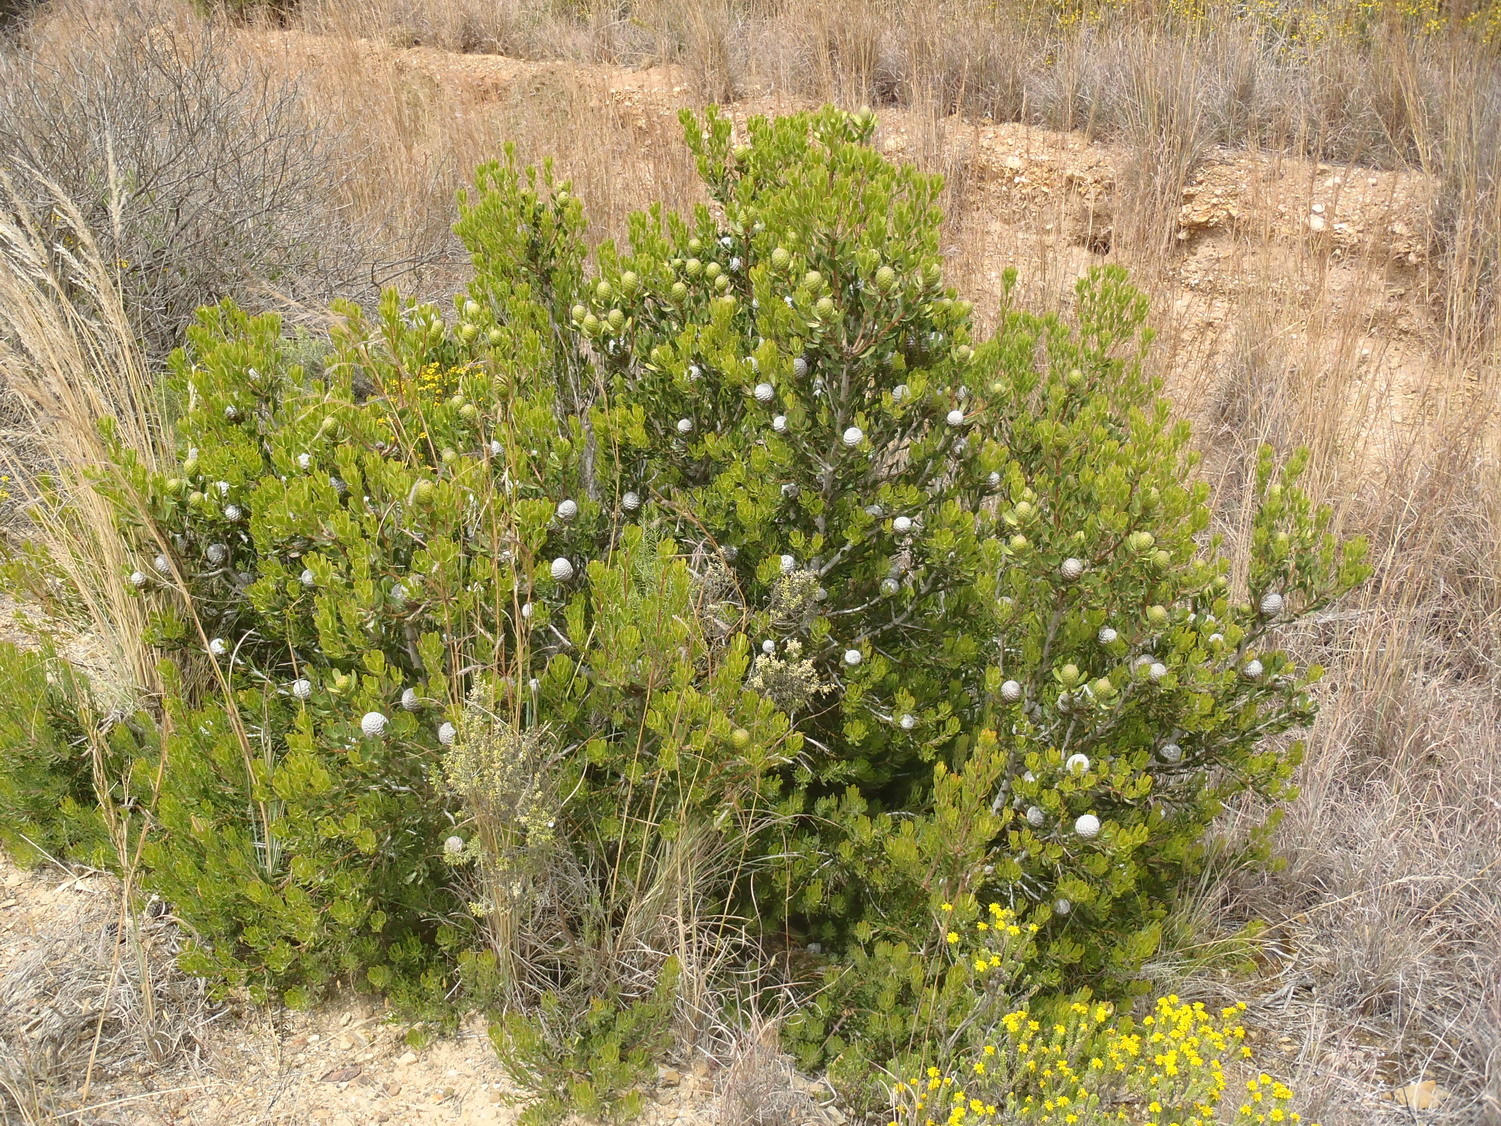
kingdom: Plantae
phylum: Tracheophyta
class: Magnoliopsida
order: Proteales
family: Proteaceae
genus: Leucadendron
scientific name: Leucadendron muirii
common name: Silver-ball conebush
